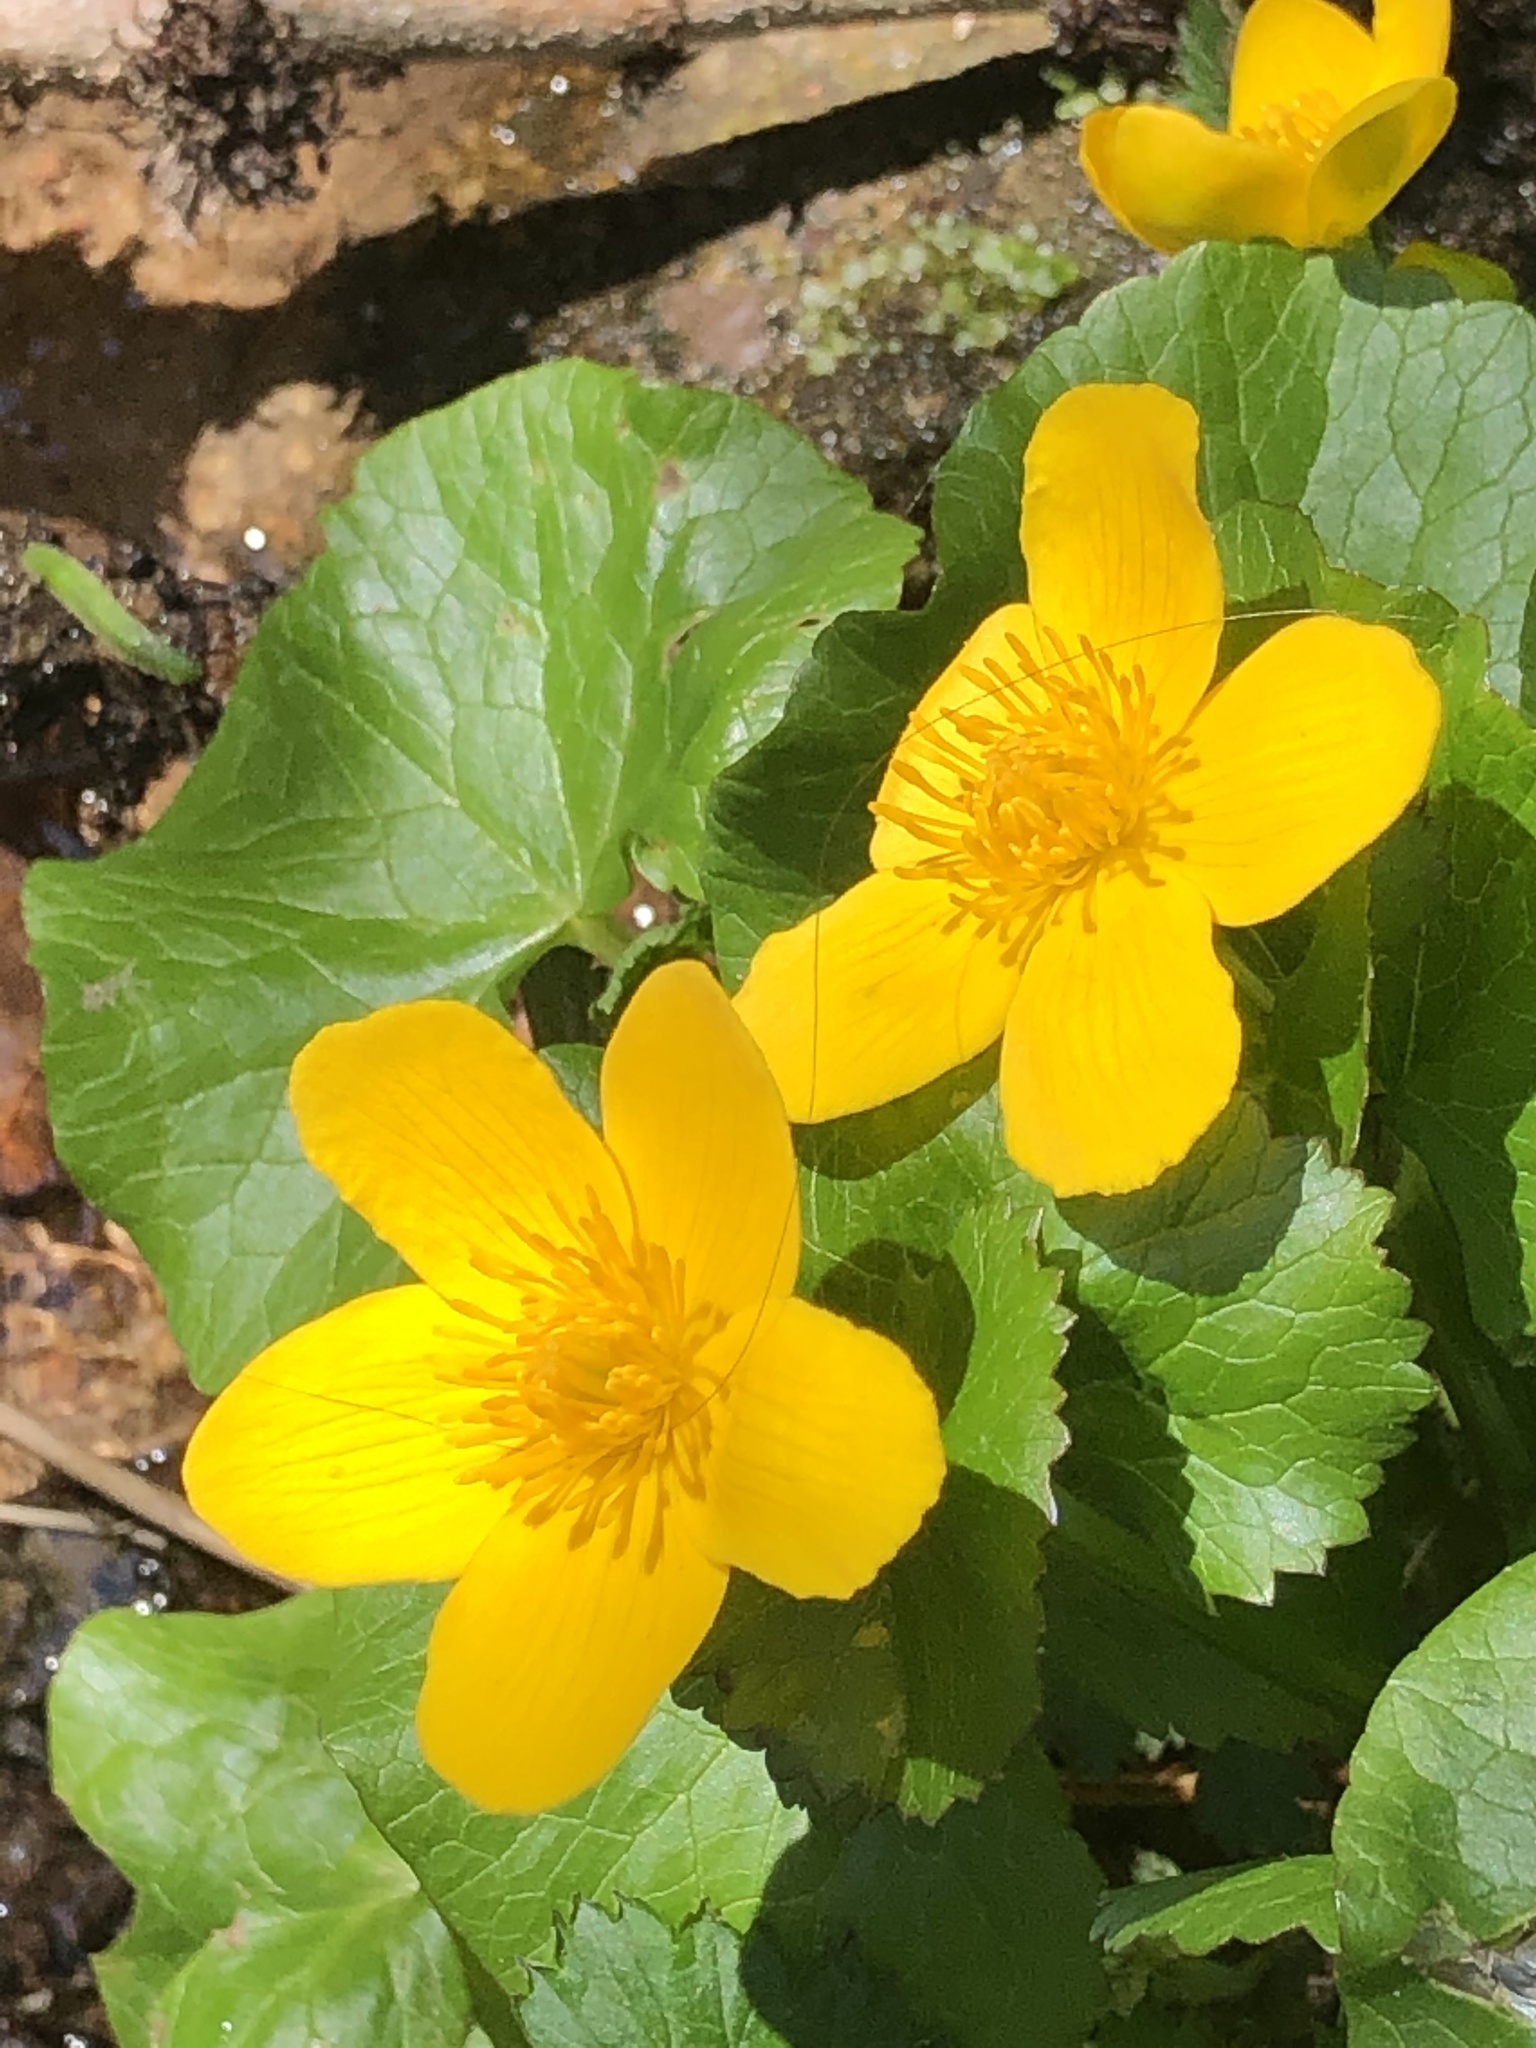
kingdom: Plantae
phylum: Tracheophyta
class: Magnoliopsida
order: Ranunculales
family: Ranunculaceae
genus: Caltha
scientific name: Caltha palustris
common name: Marsh marigold
